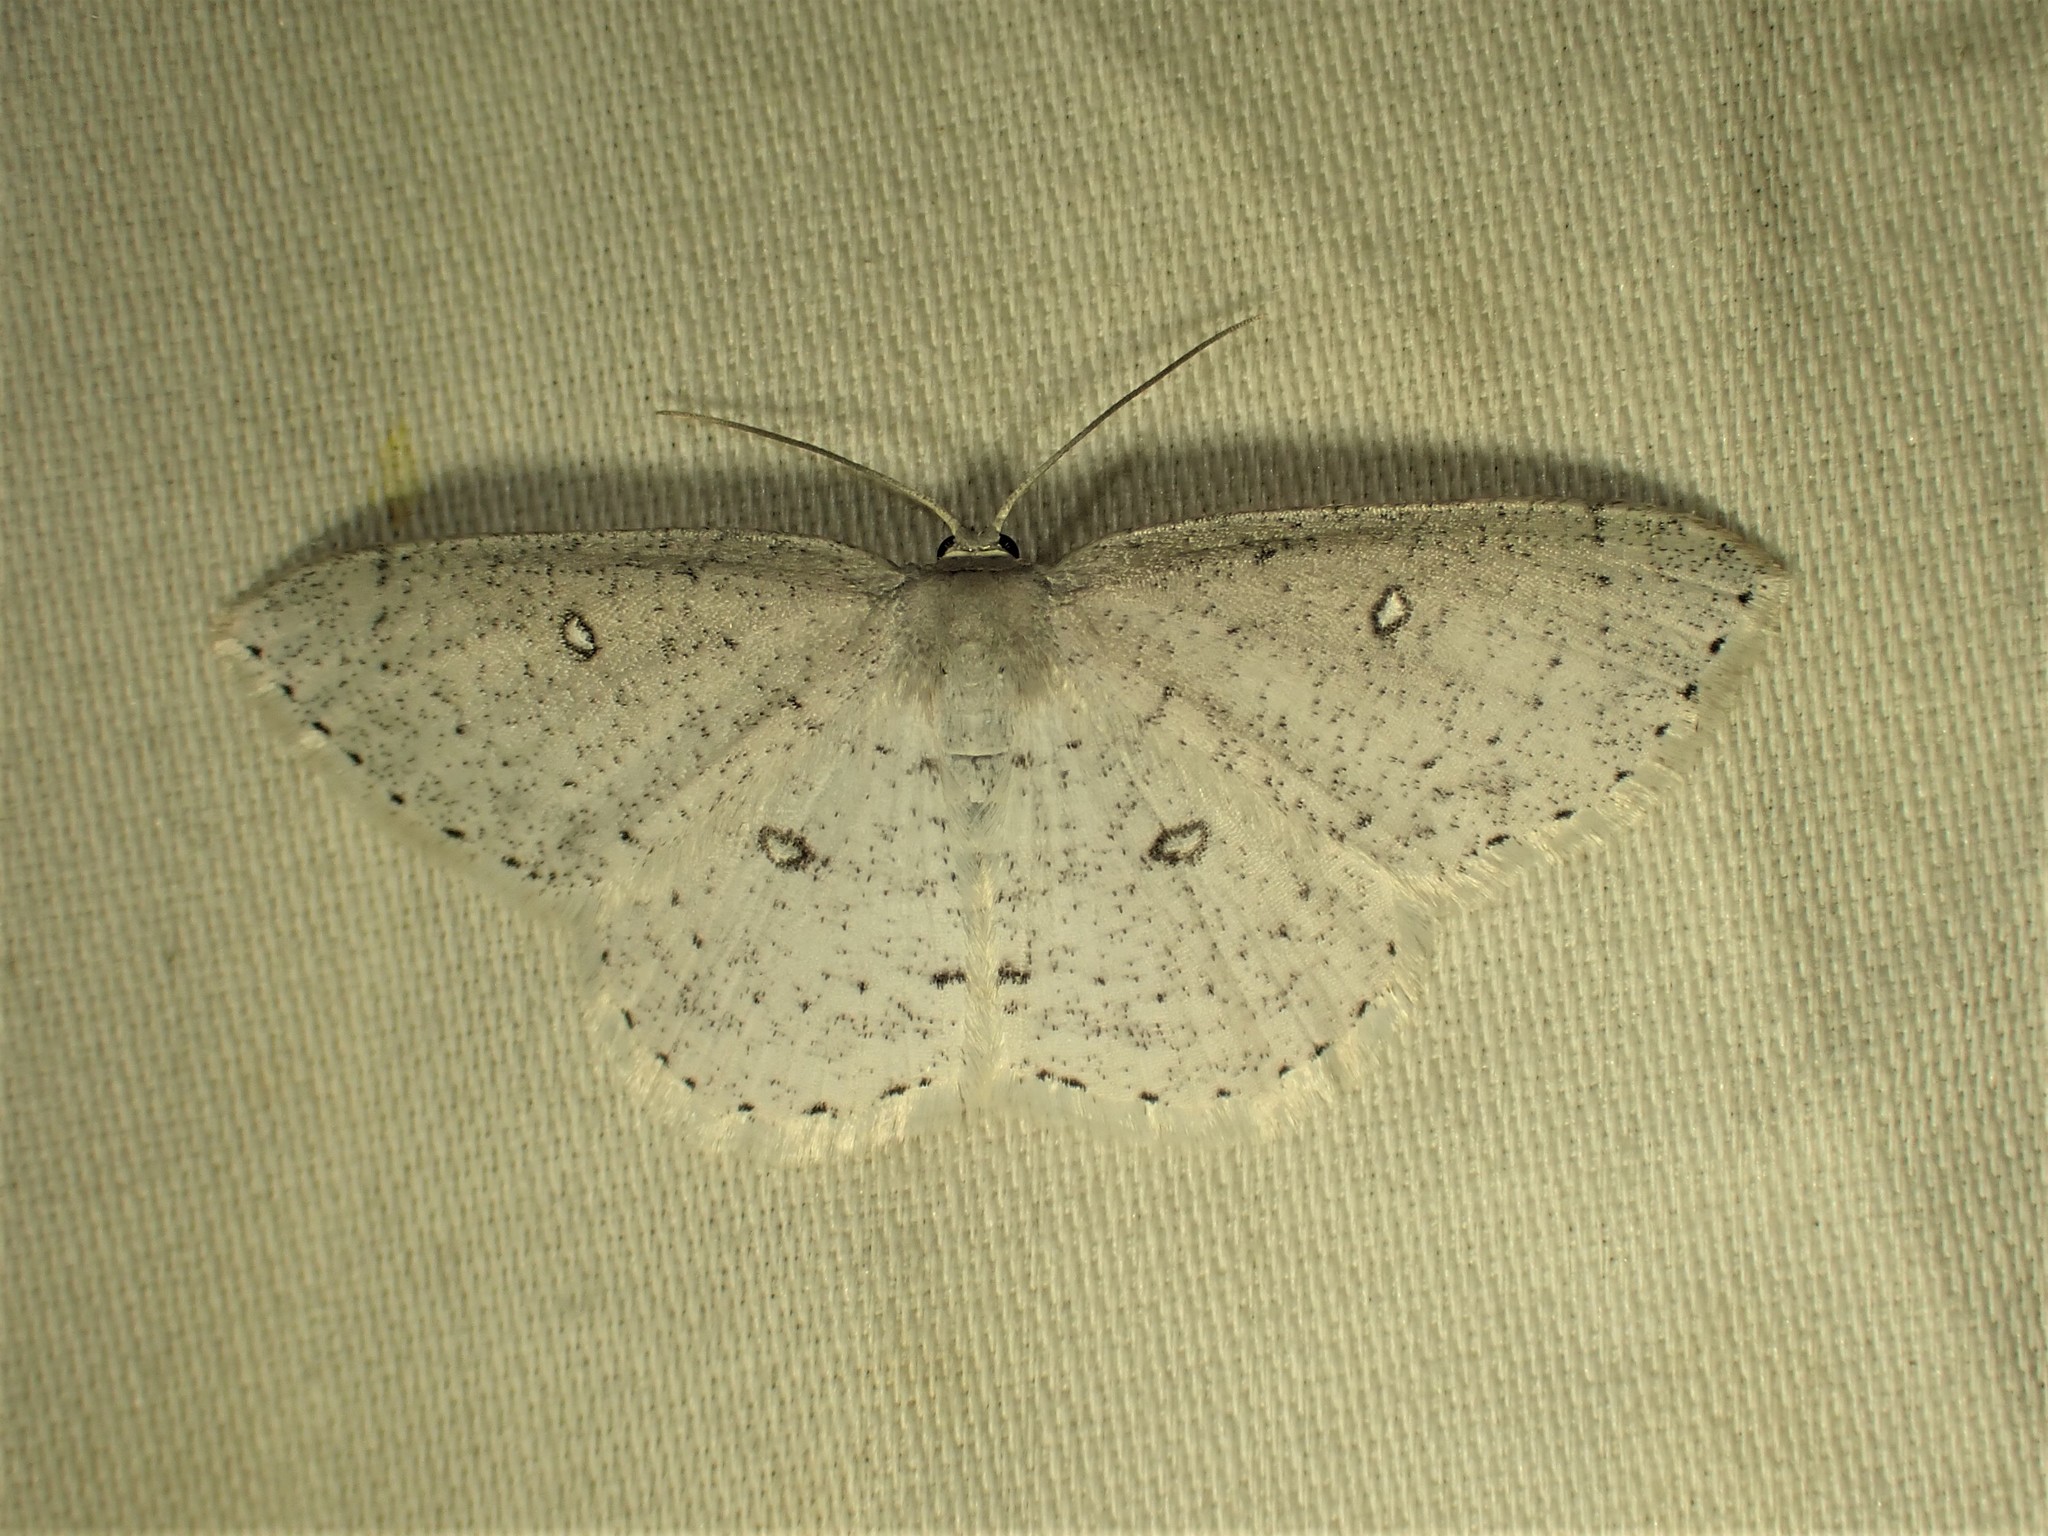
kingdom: Animalia
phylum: Arthropoda
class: Insecta
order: Lepidoptera
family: Geometridae
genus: Cyclophora
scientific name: Cyclophora pendulinaria
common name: Sweet fern geometer
